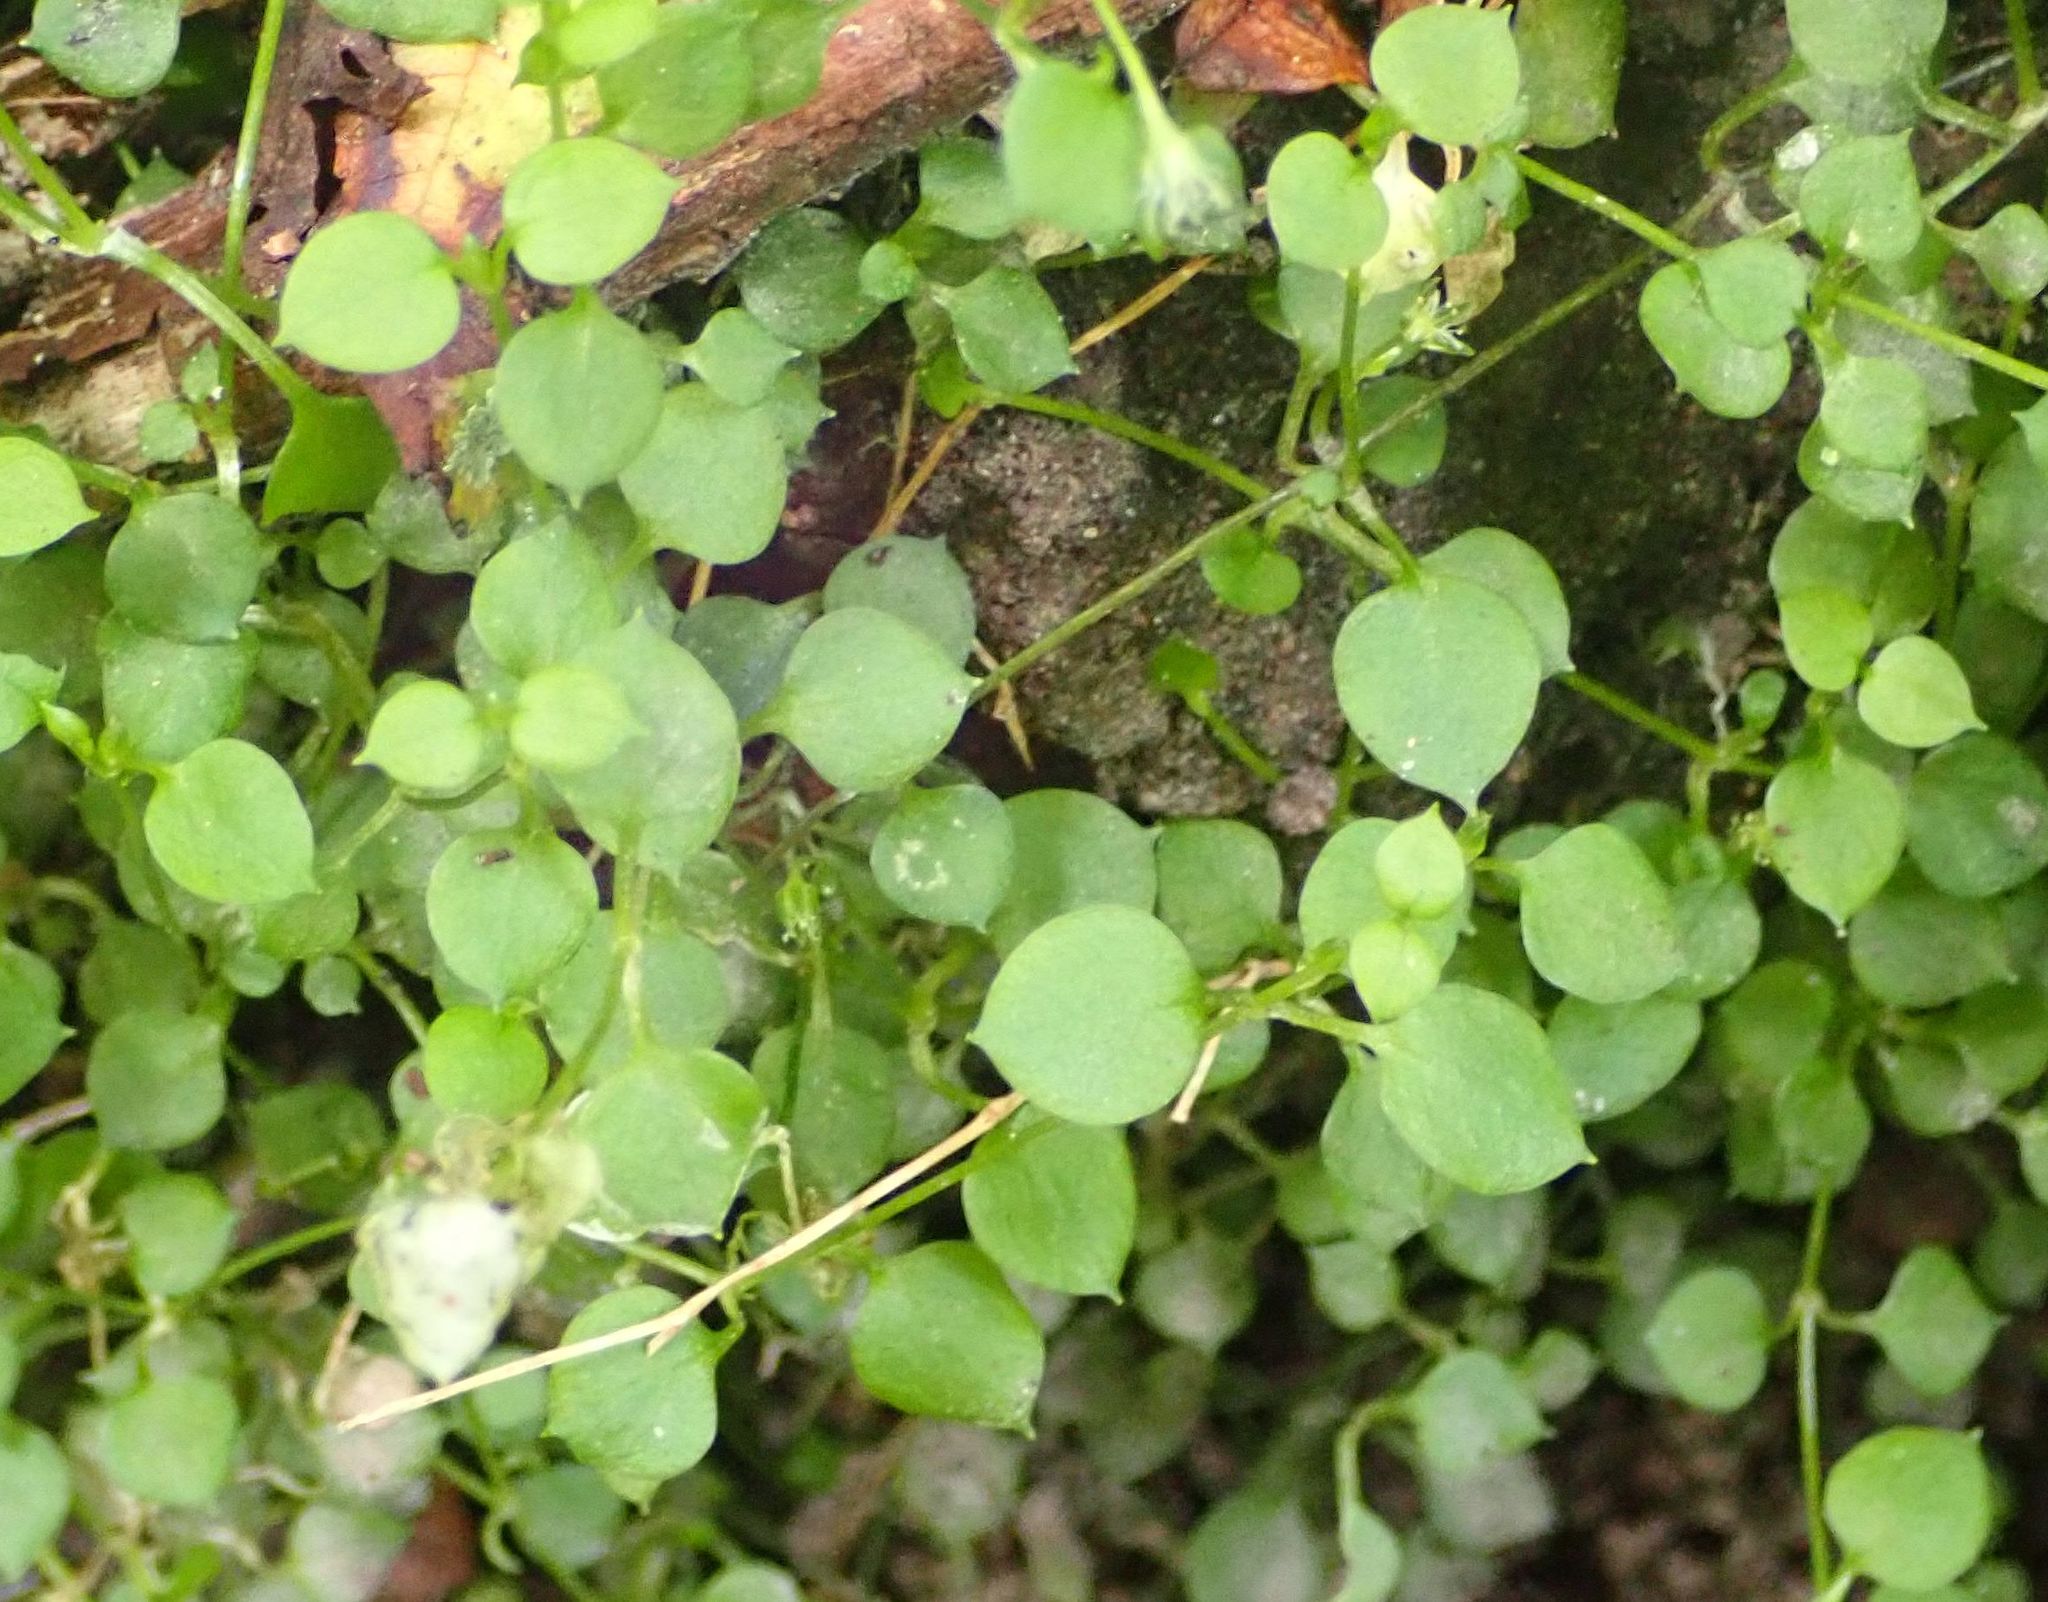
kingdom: Plantae
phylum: Tracheophyta
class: Magnoliopsida
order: Caryophyllales
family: Caryophyllaceae
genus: Stellaria
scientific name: Stellaria parviflora
